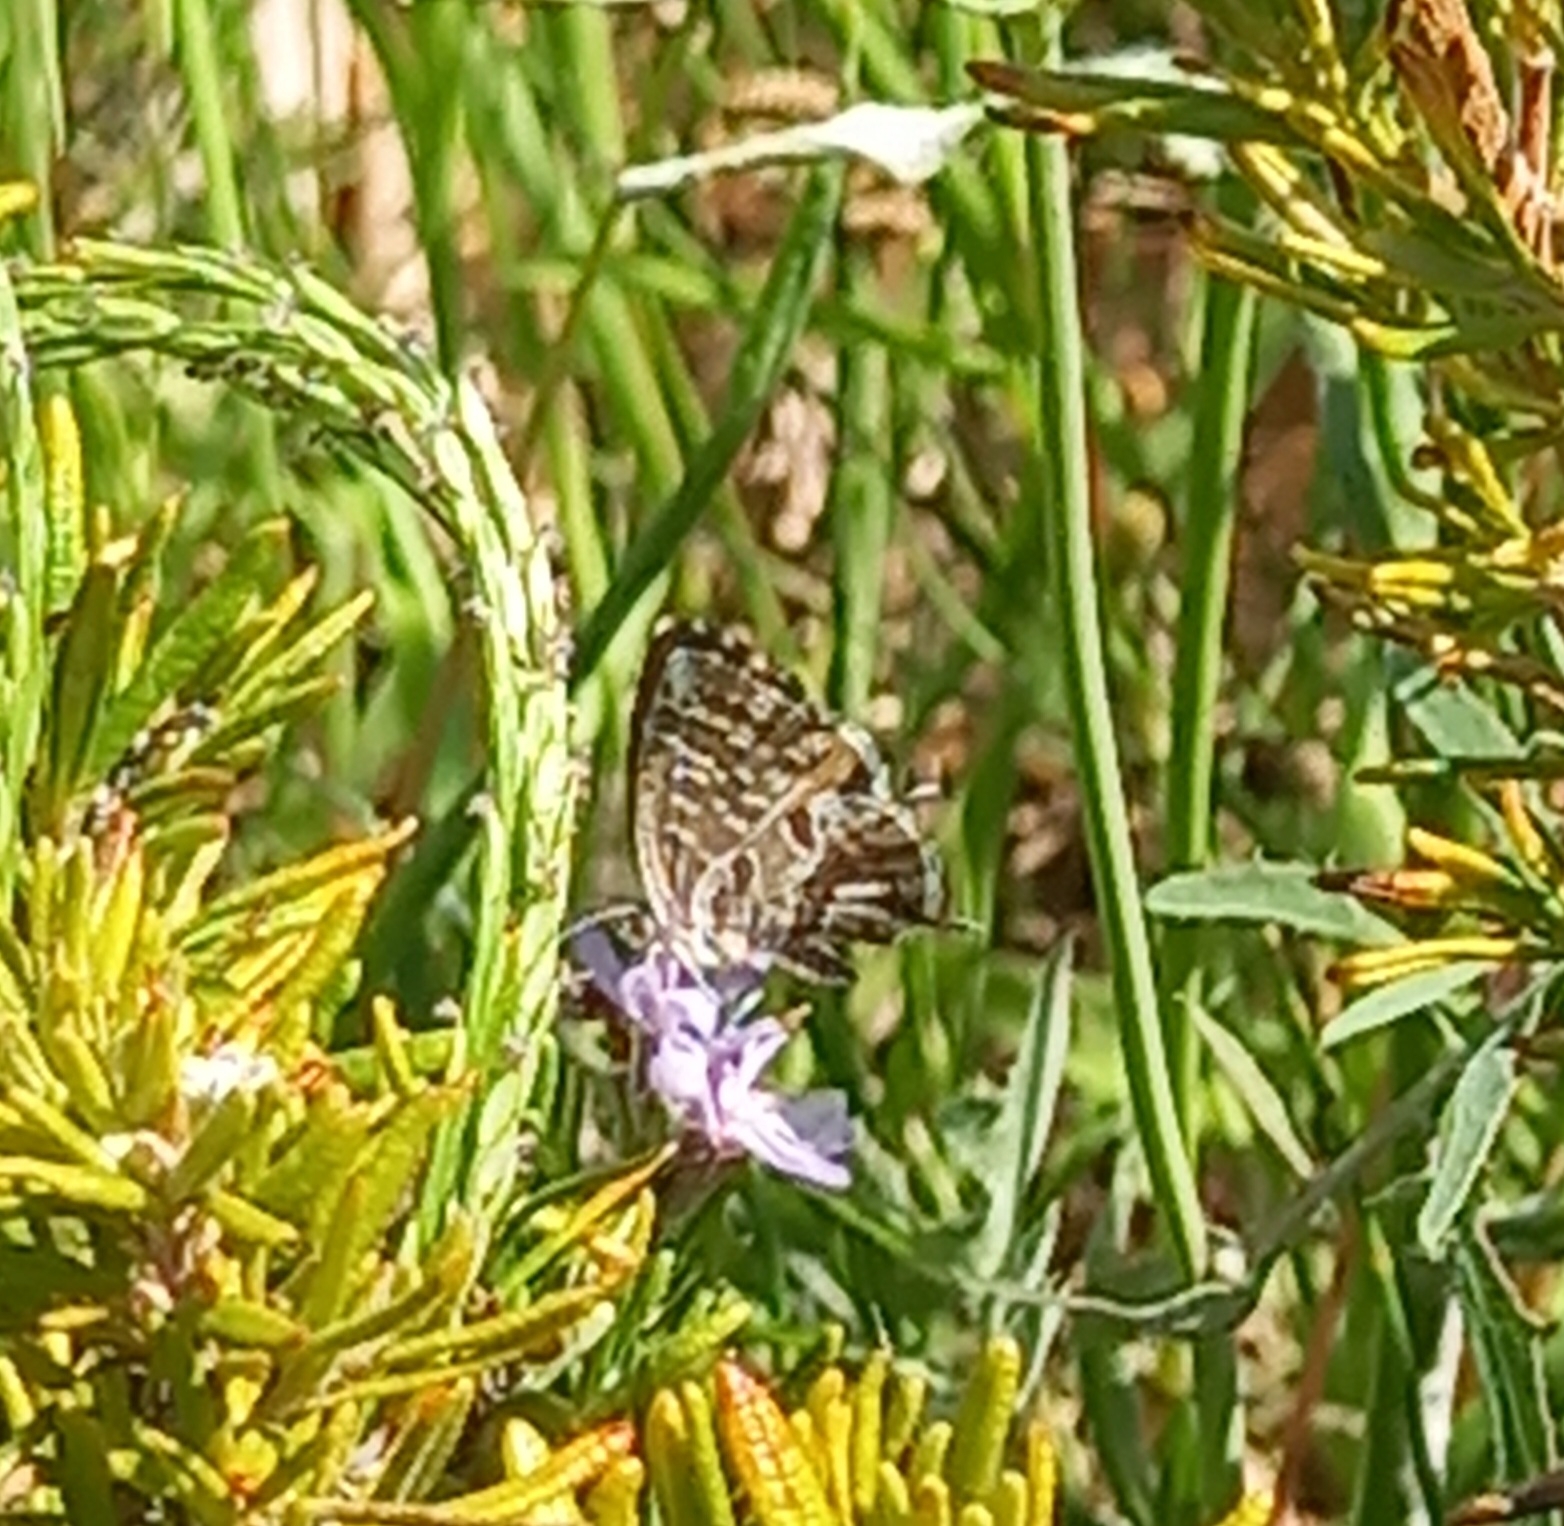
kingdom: Animalia
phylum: Arthropoda
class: Insecta
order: Lepidoptera
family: Lycaenidae
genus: Cacyreus
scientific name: Cacyreus marshalli
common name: Geranium bronze
